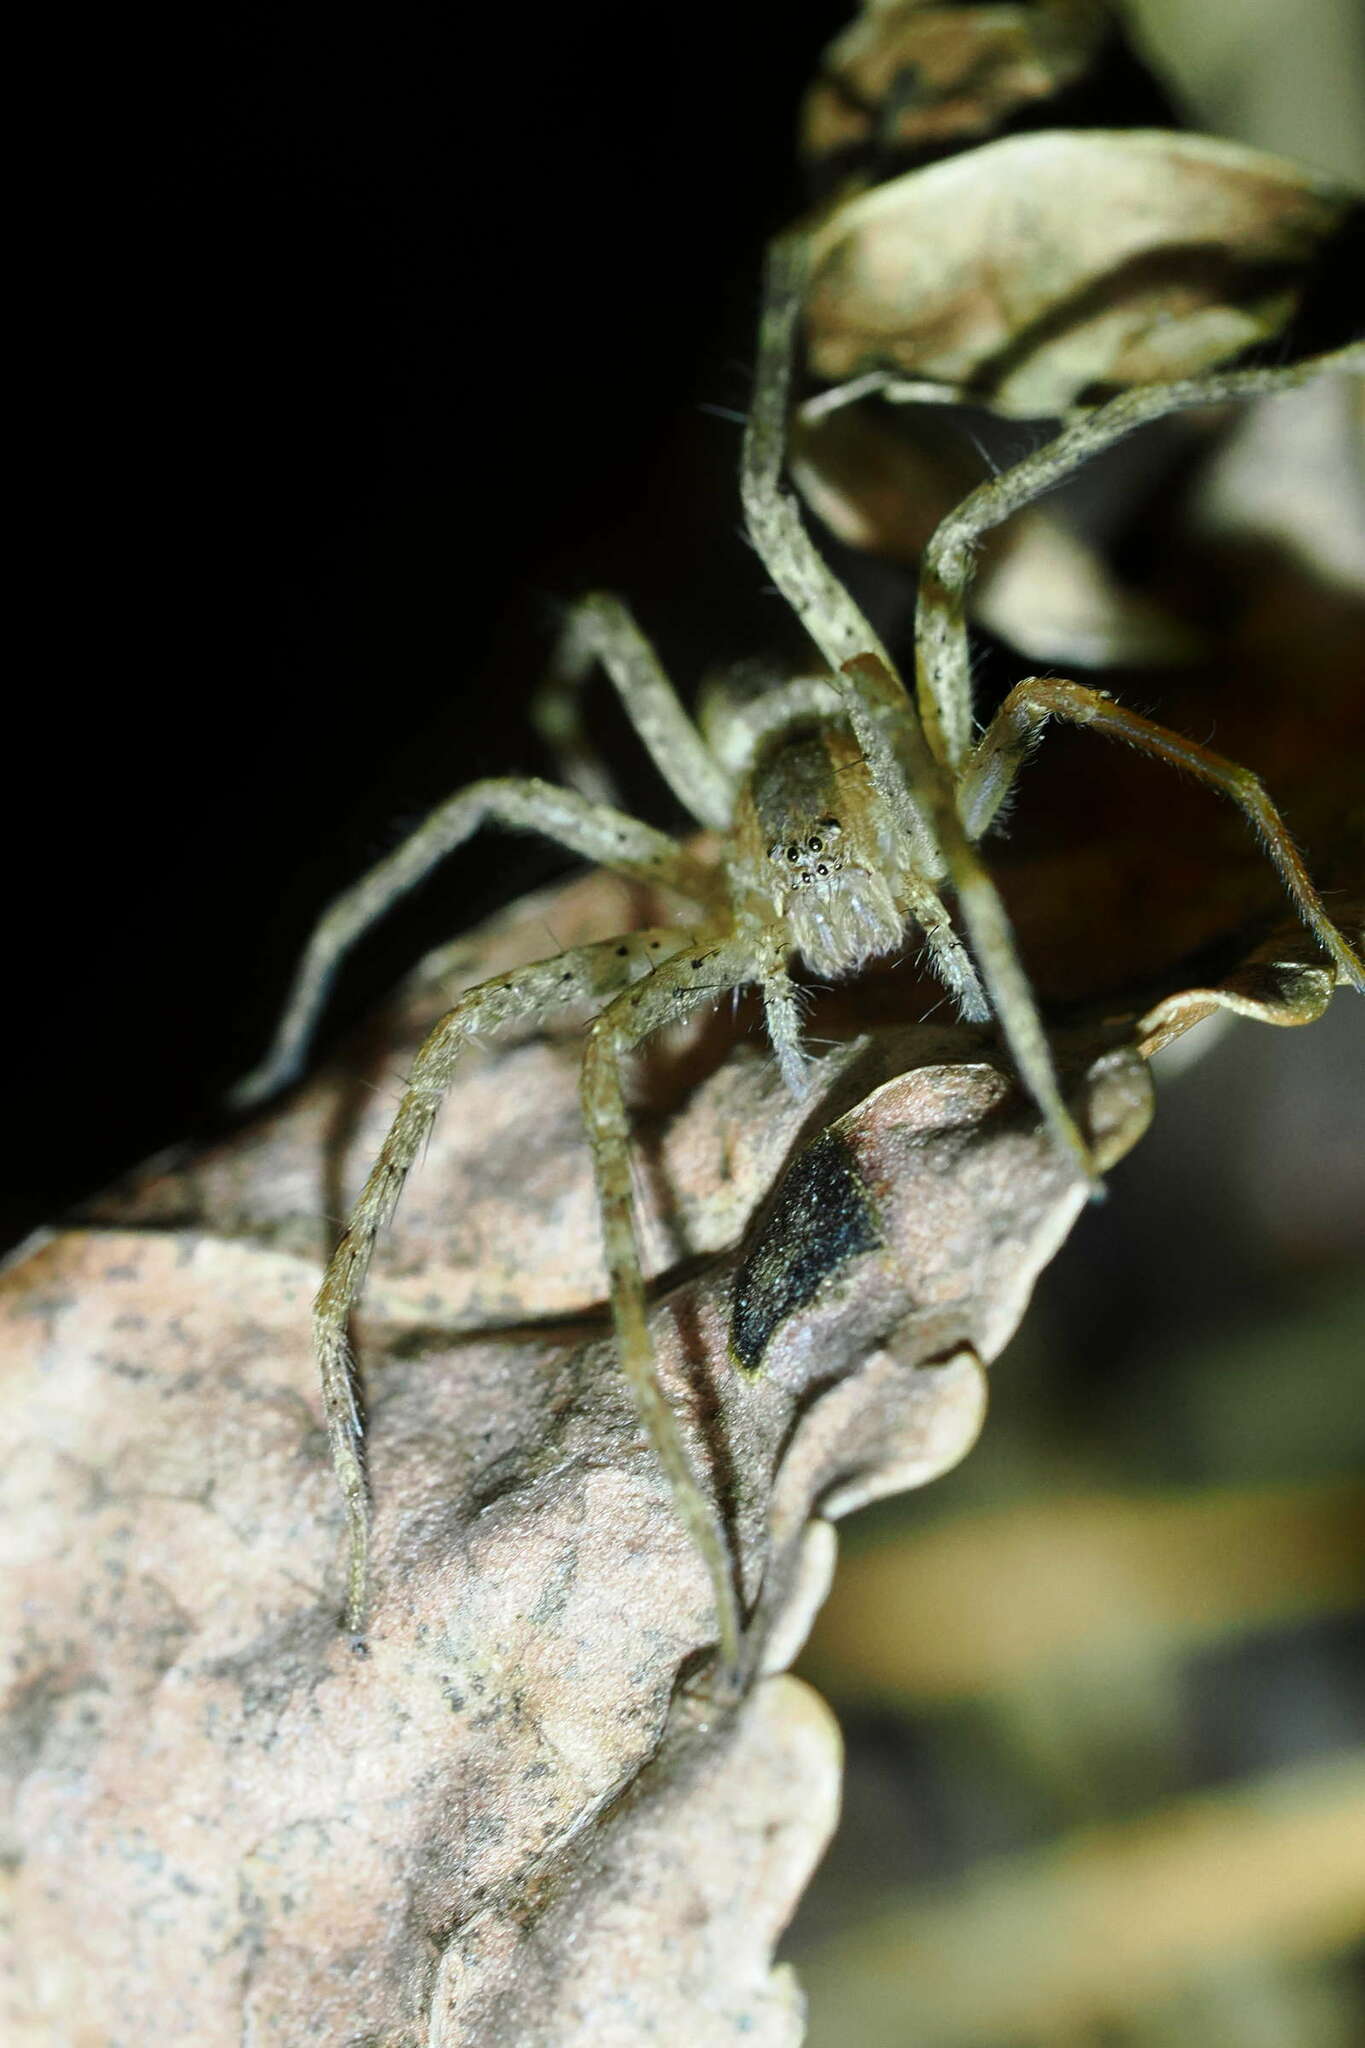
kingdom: Animalia
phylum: Arthropoda
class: Arachnida
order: Araneae
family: Pisauridae
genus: Pisaurina
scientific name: Pisaurina mira
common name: American nursery web spider
